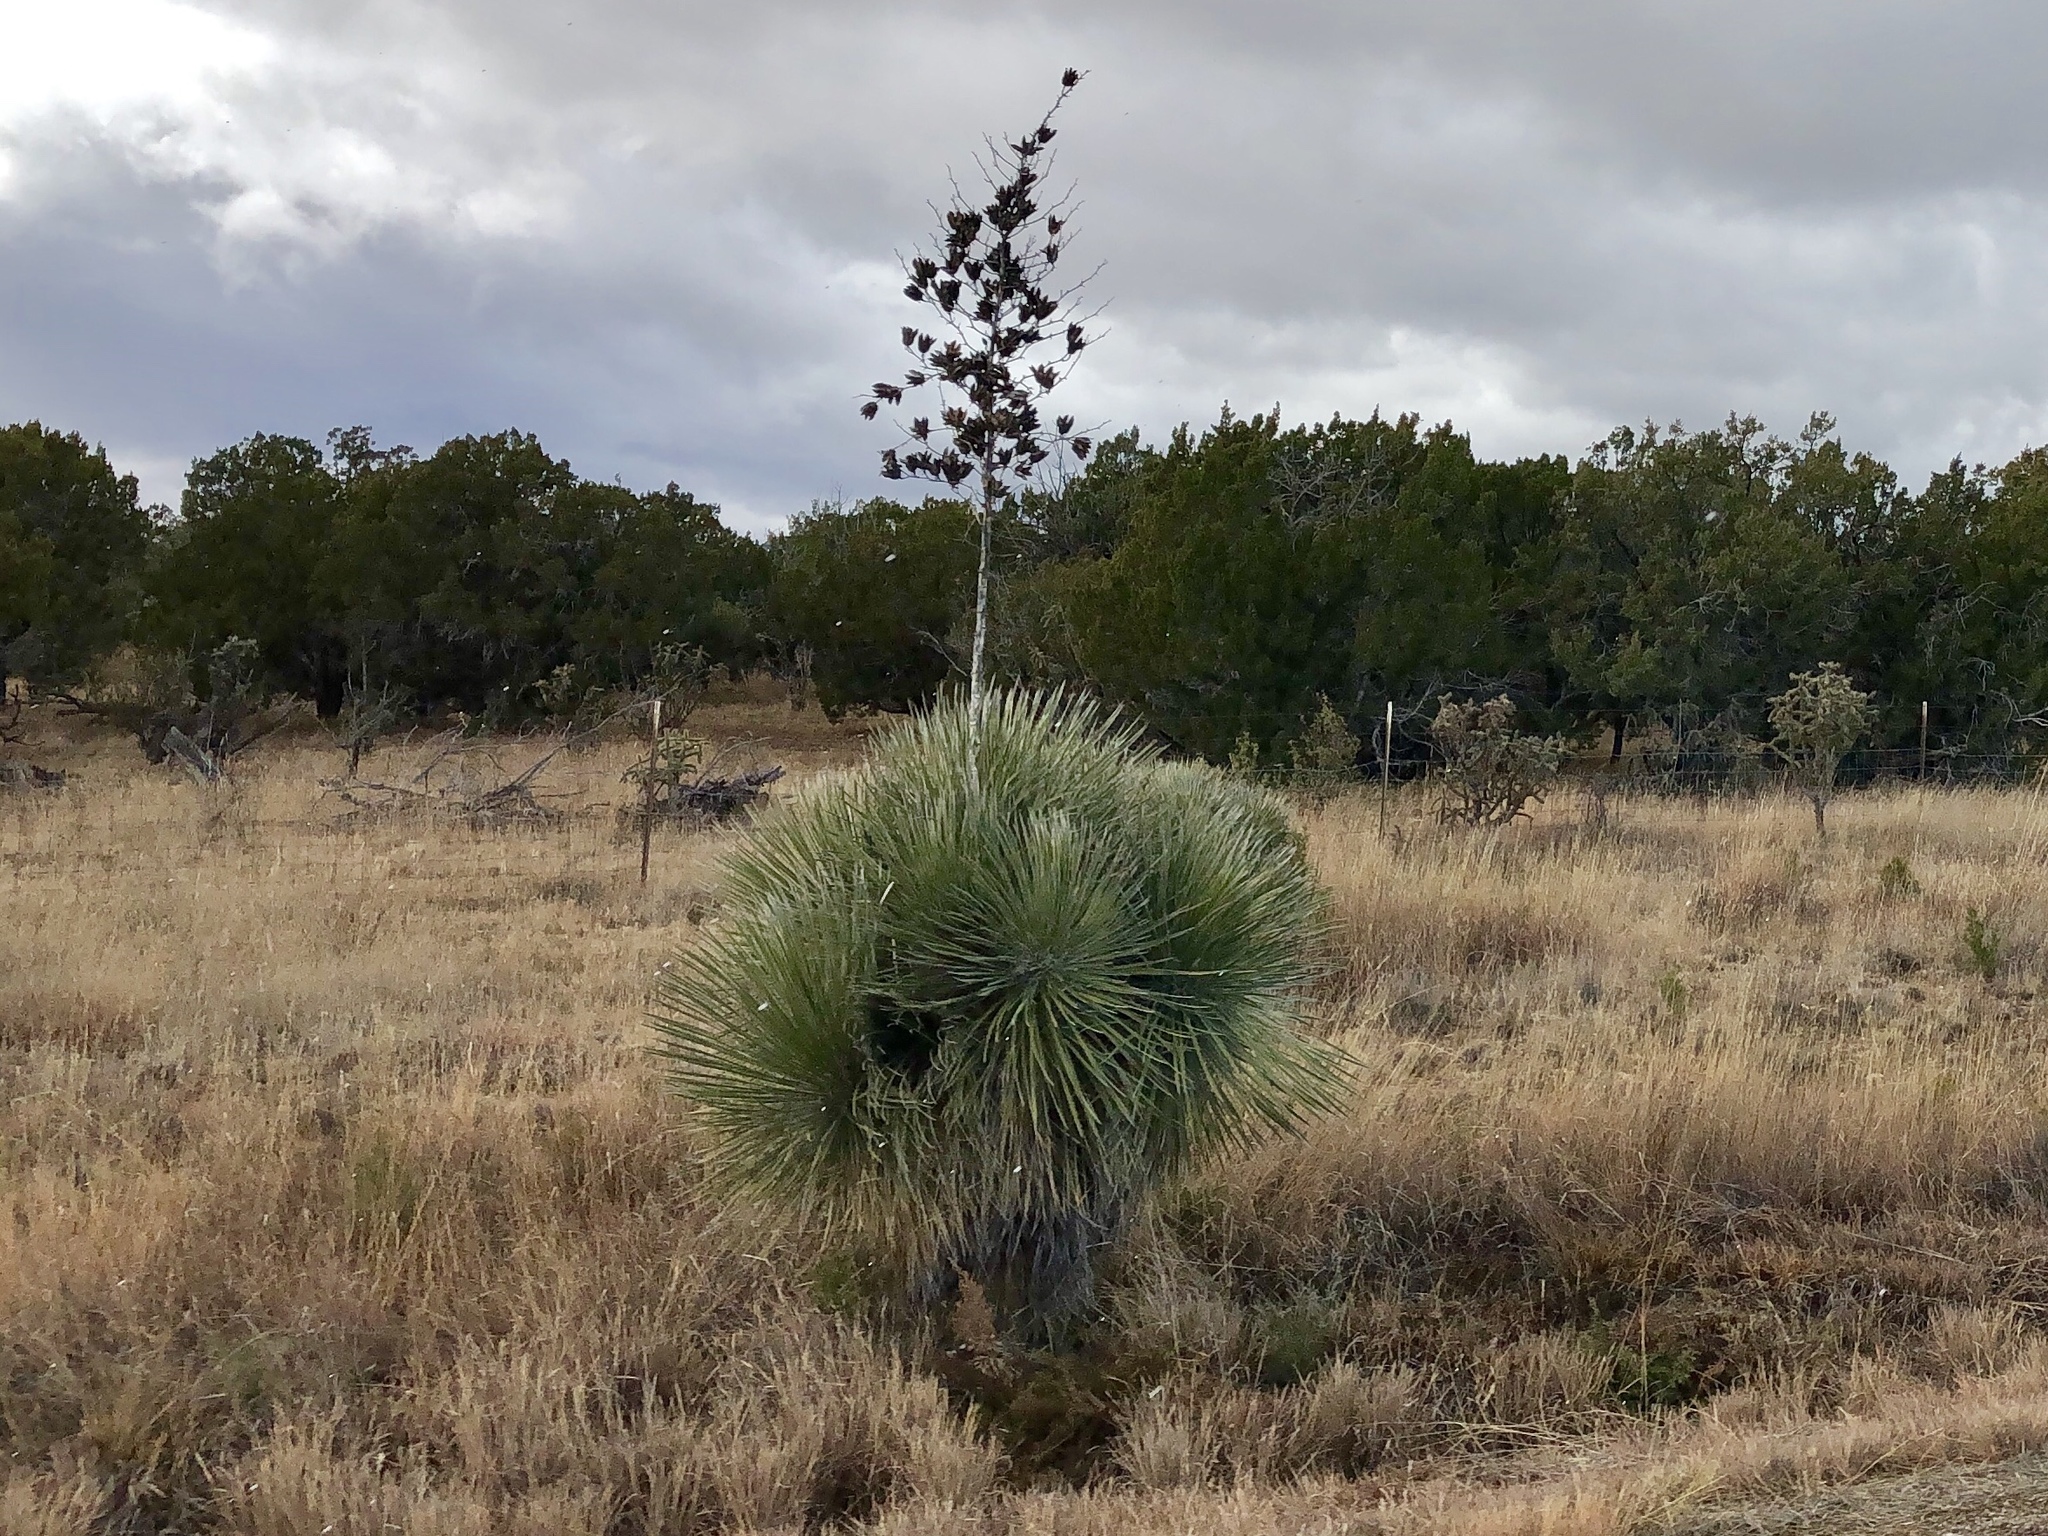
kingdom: Plantae
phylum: Tracheophyta
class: Liliopsida
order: Asparagales
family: Asparagaceae
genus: Yucca
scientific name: Yucca elata
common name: Palmella
